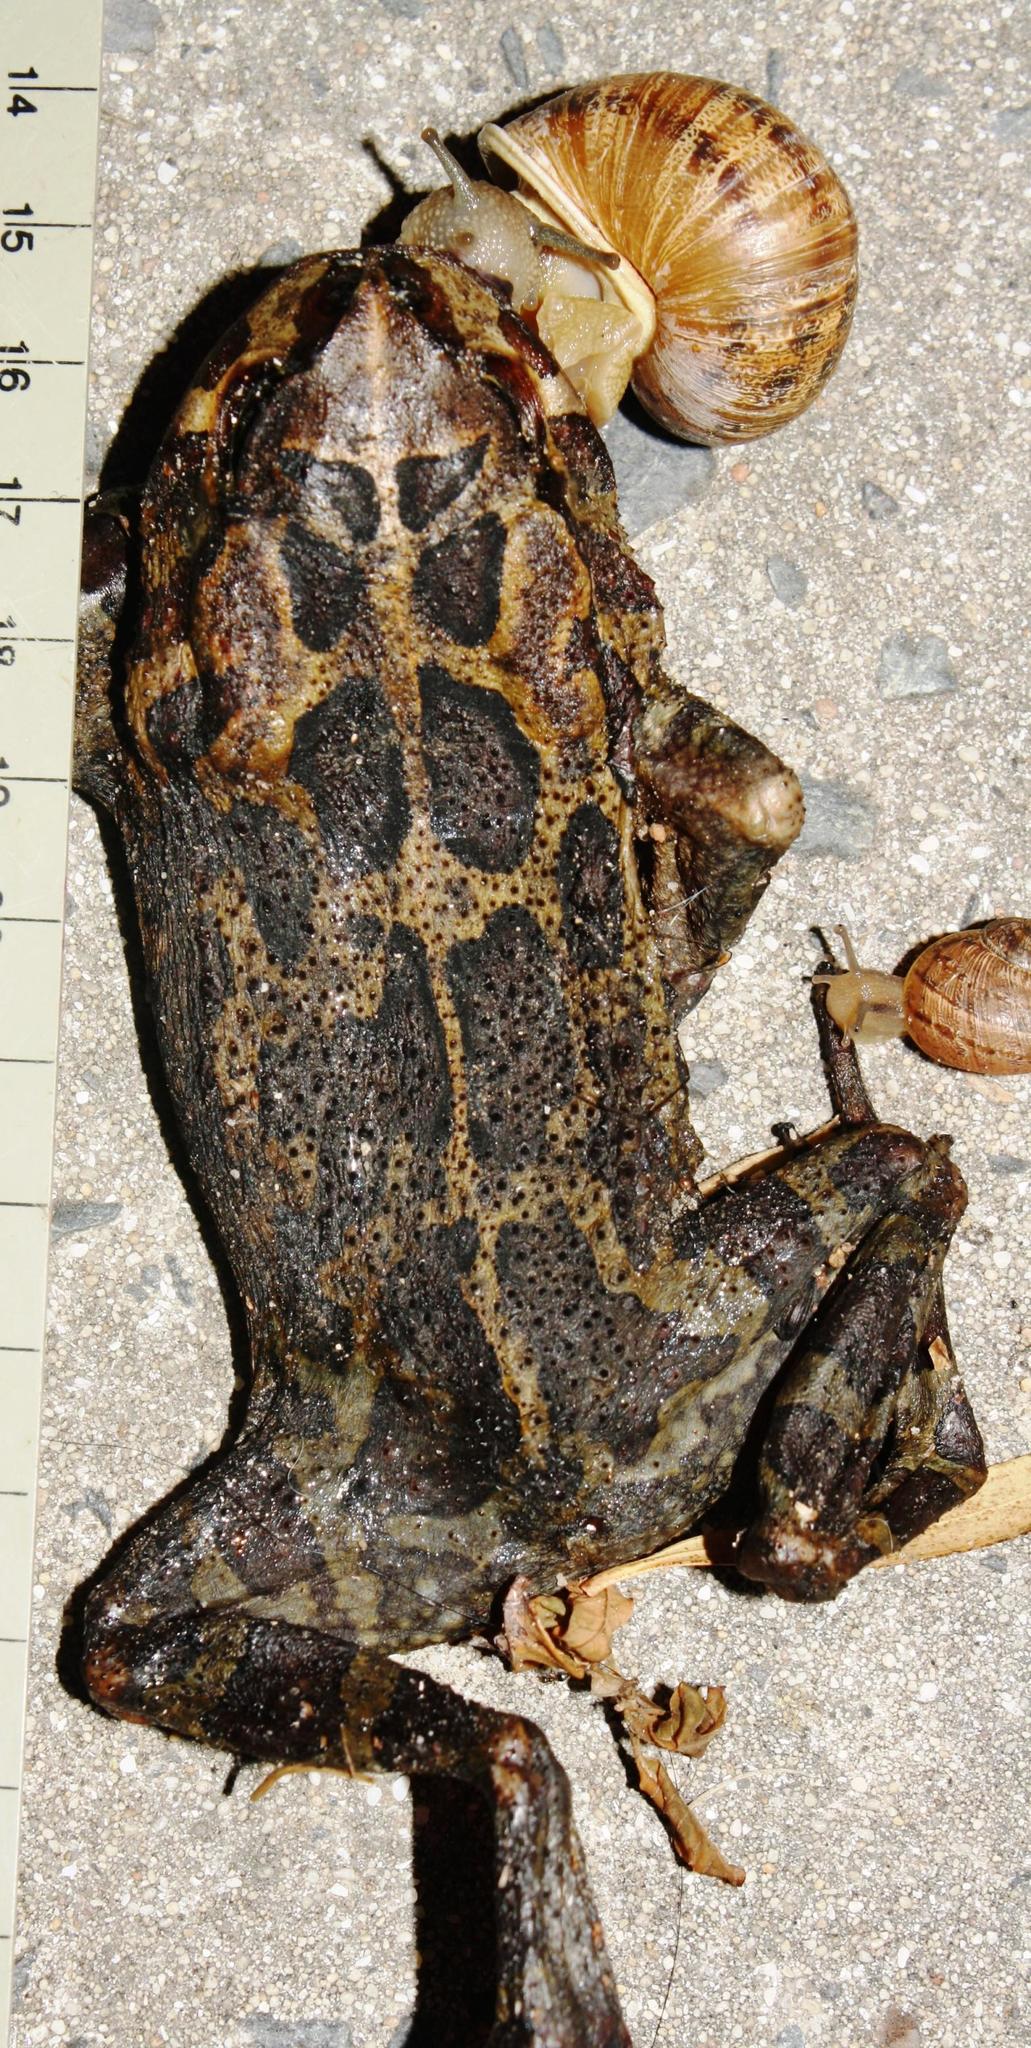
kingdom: Animalia
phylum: Chordata
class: Amphibia
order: Anura
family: Bufonidae
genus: Sclerophrys
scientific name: Sclerophrys pantherina
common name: Panther toad
